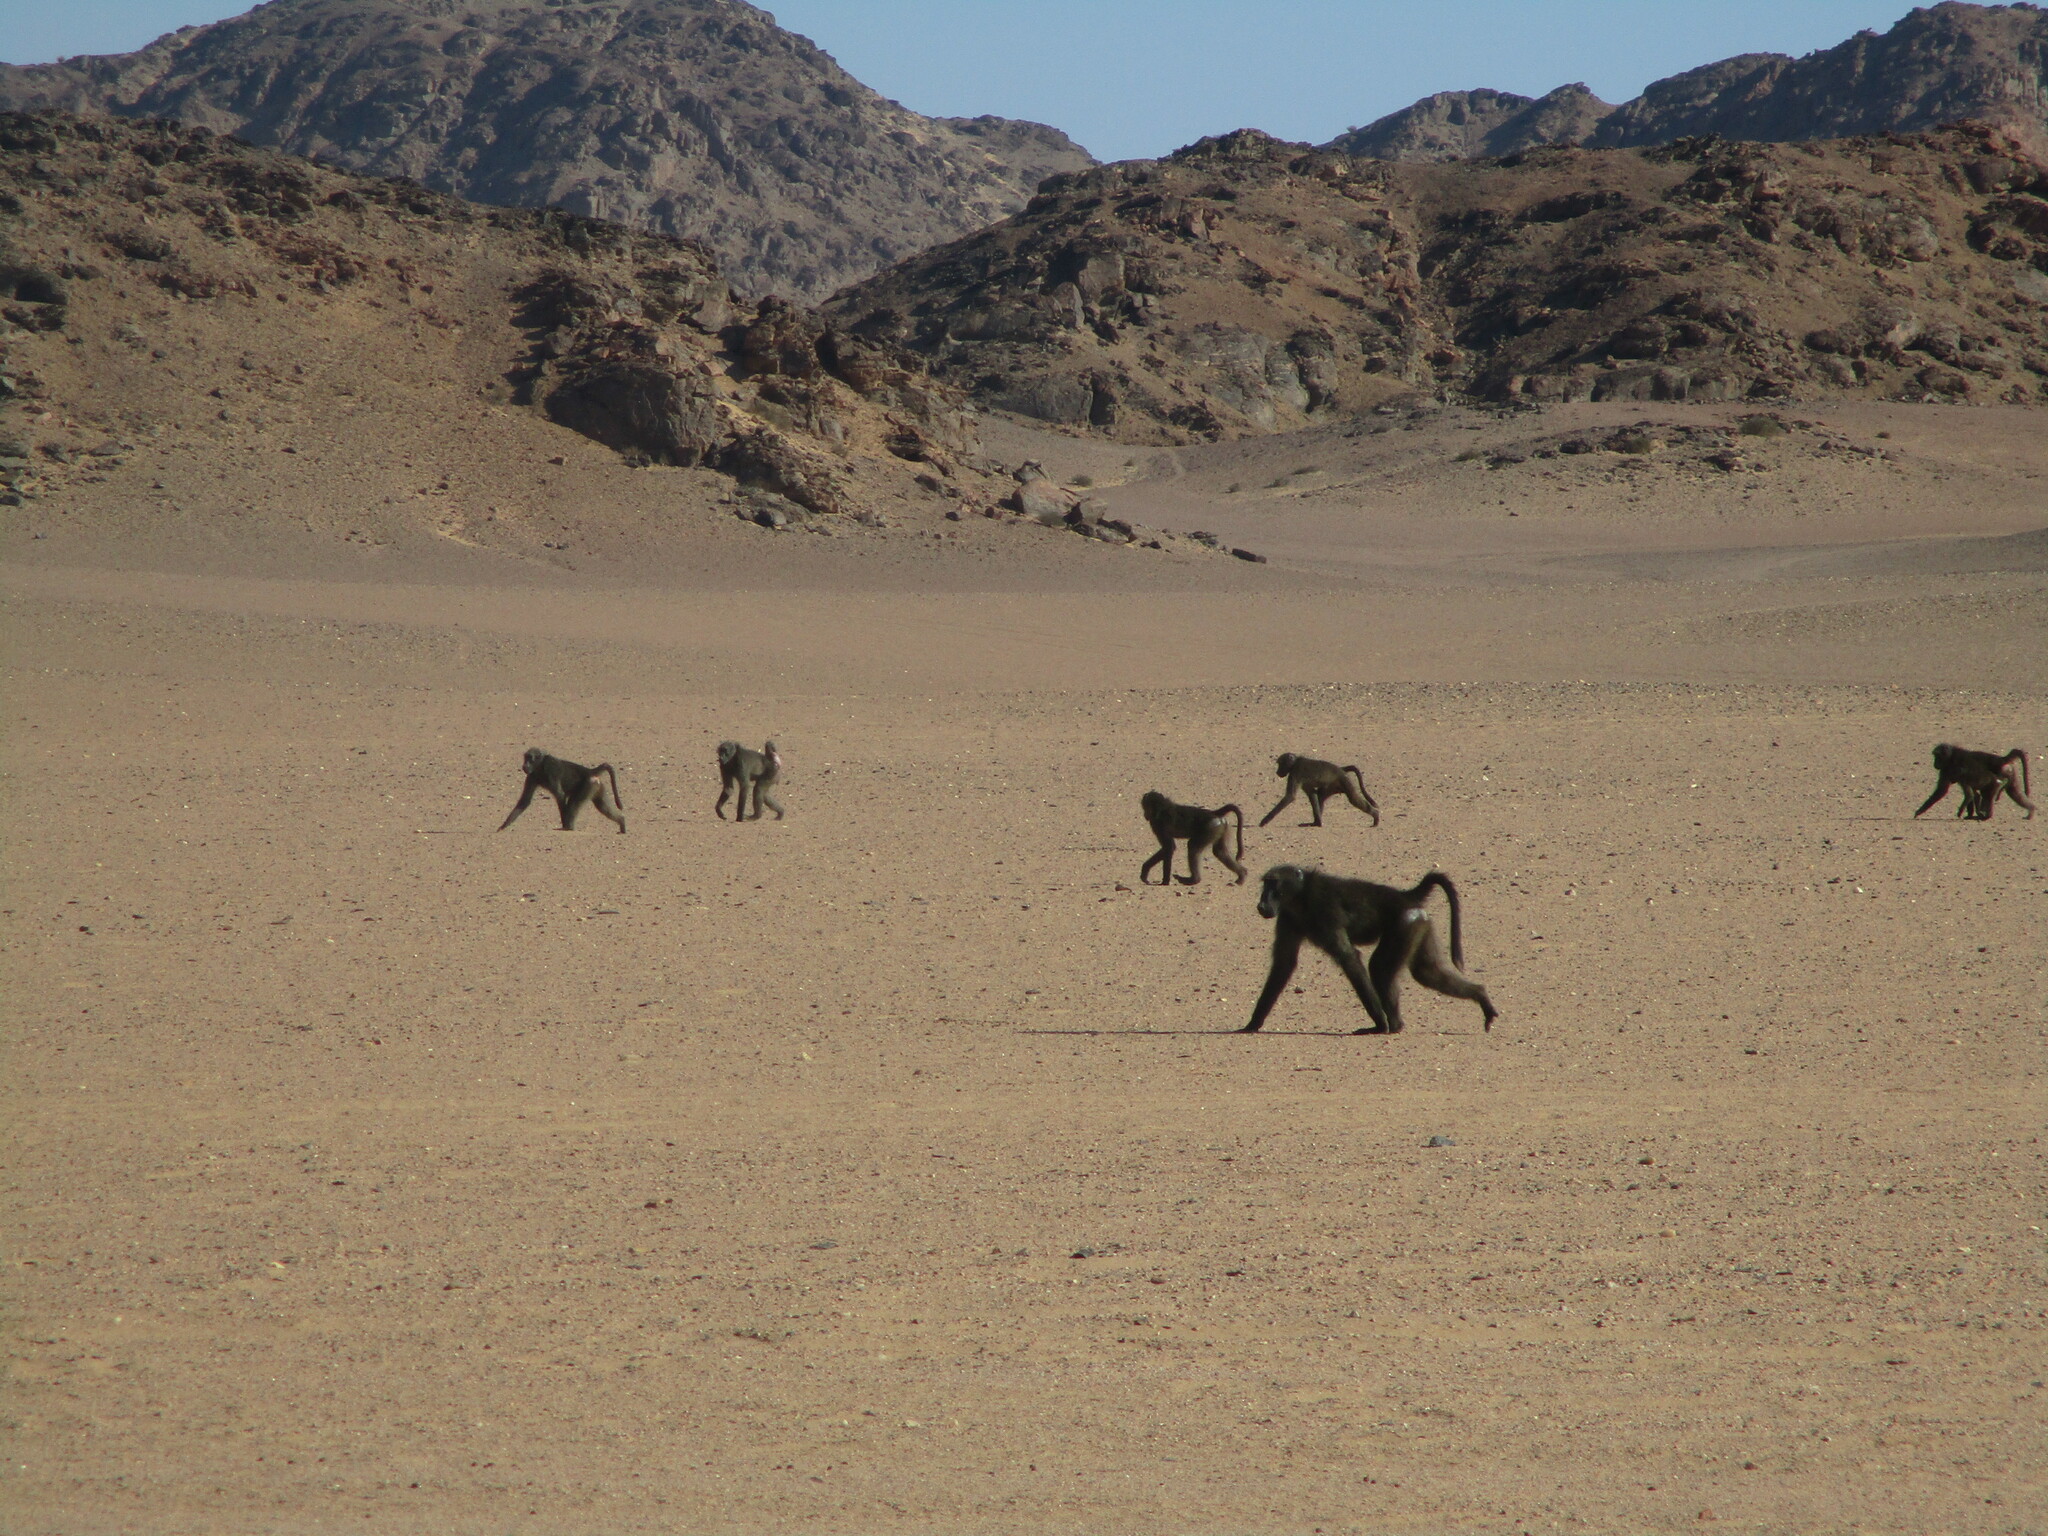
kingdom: Animalia
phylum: Chordata
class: Mammalia
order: Primates
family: Cercopithecidae
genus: Papio
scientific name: Papio ursinus
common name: Chacma baboon
